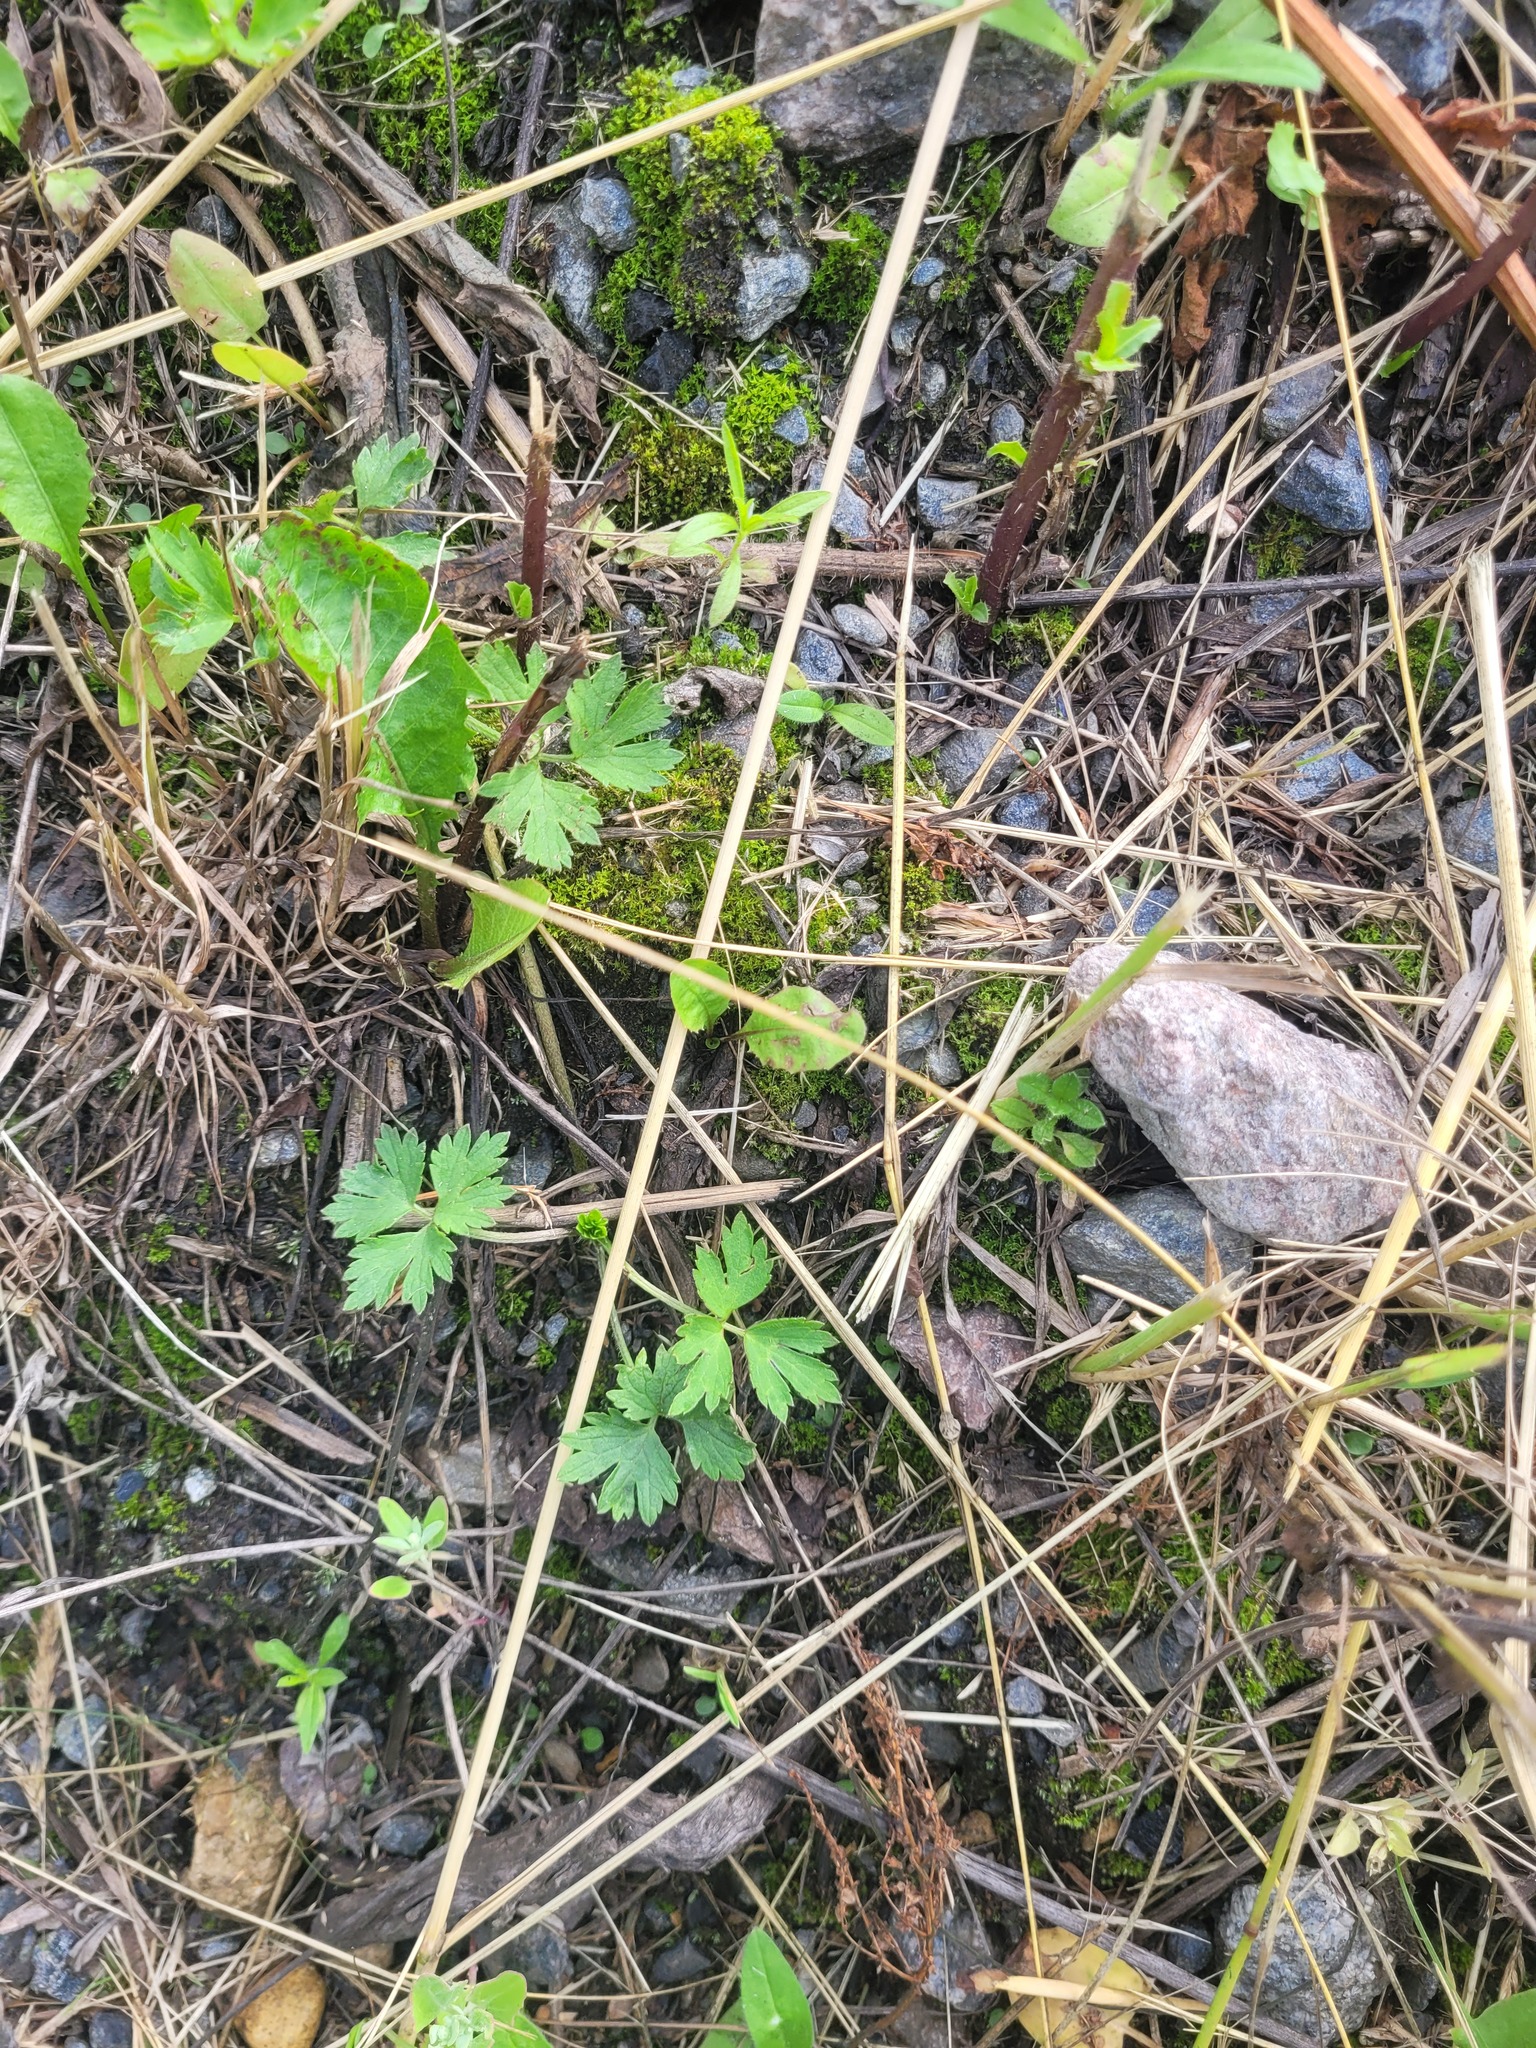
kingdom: Plantae
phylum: Tracheophyta
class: Magnoliopsida
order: Ranunculales
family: Ranunculaceae
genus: Ranunculus
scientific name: Ranunculus repens
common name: Creeping buttercup
